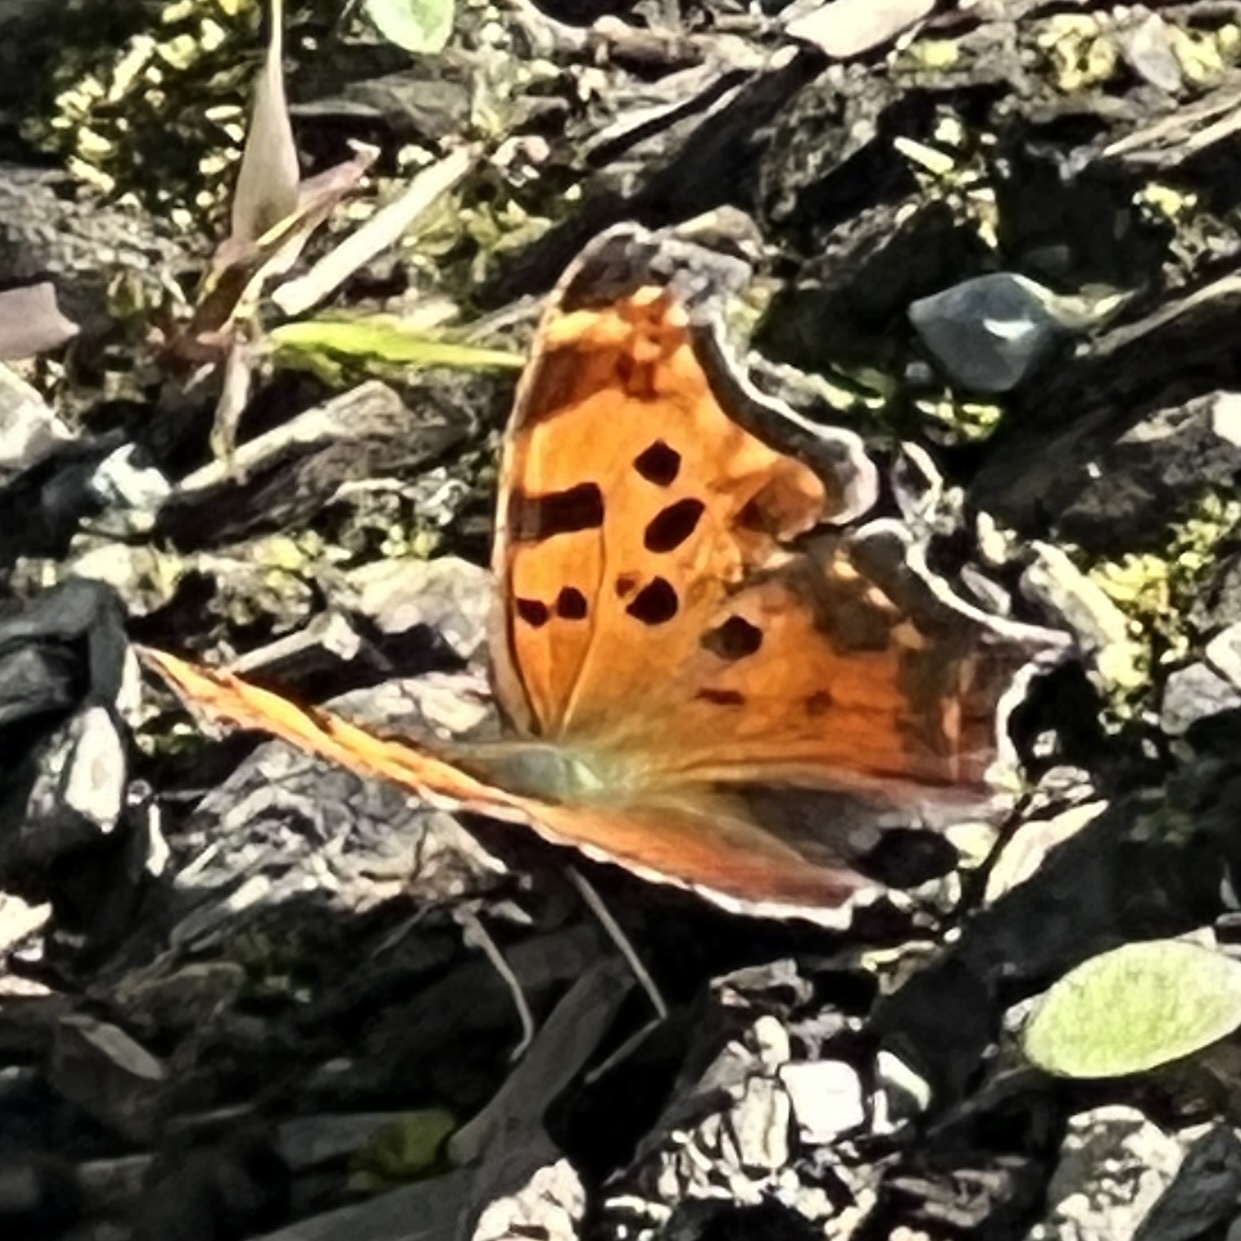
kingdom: Animalia
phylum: Arthropoda
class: Insecta
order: Lepidoptera
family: Nymphalidae
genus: Polygonia
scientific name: Polygonia comma
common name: Eastern comma
